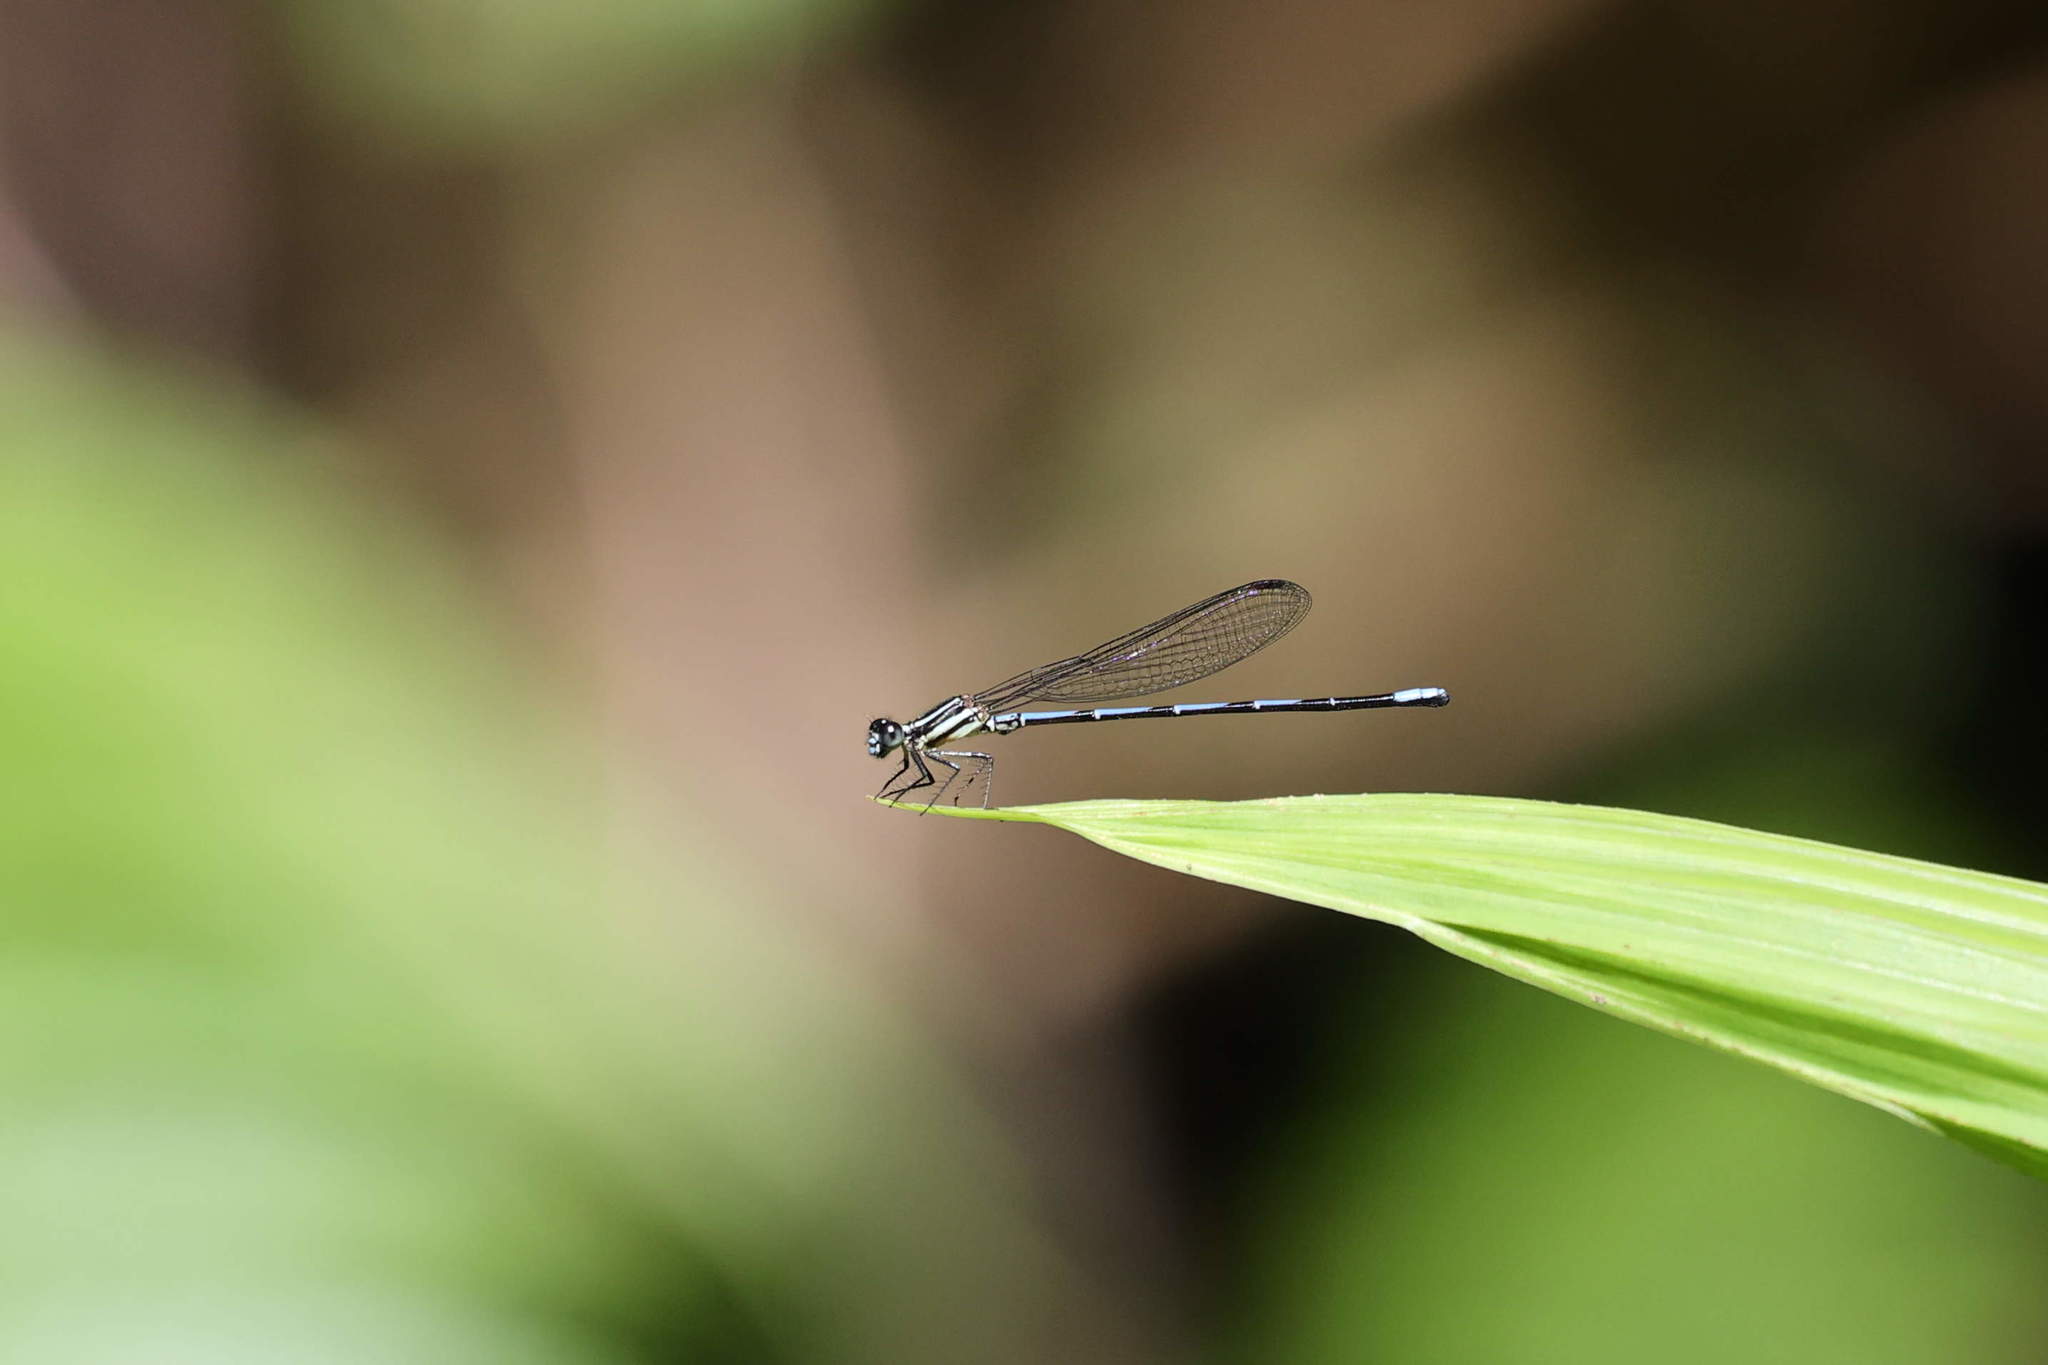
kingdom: Animalia
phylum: Arthropoda
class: Insecta
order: Odonata
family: Coenagrionidae
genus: Argia
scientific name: Argia concinna
